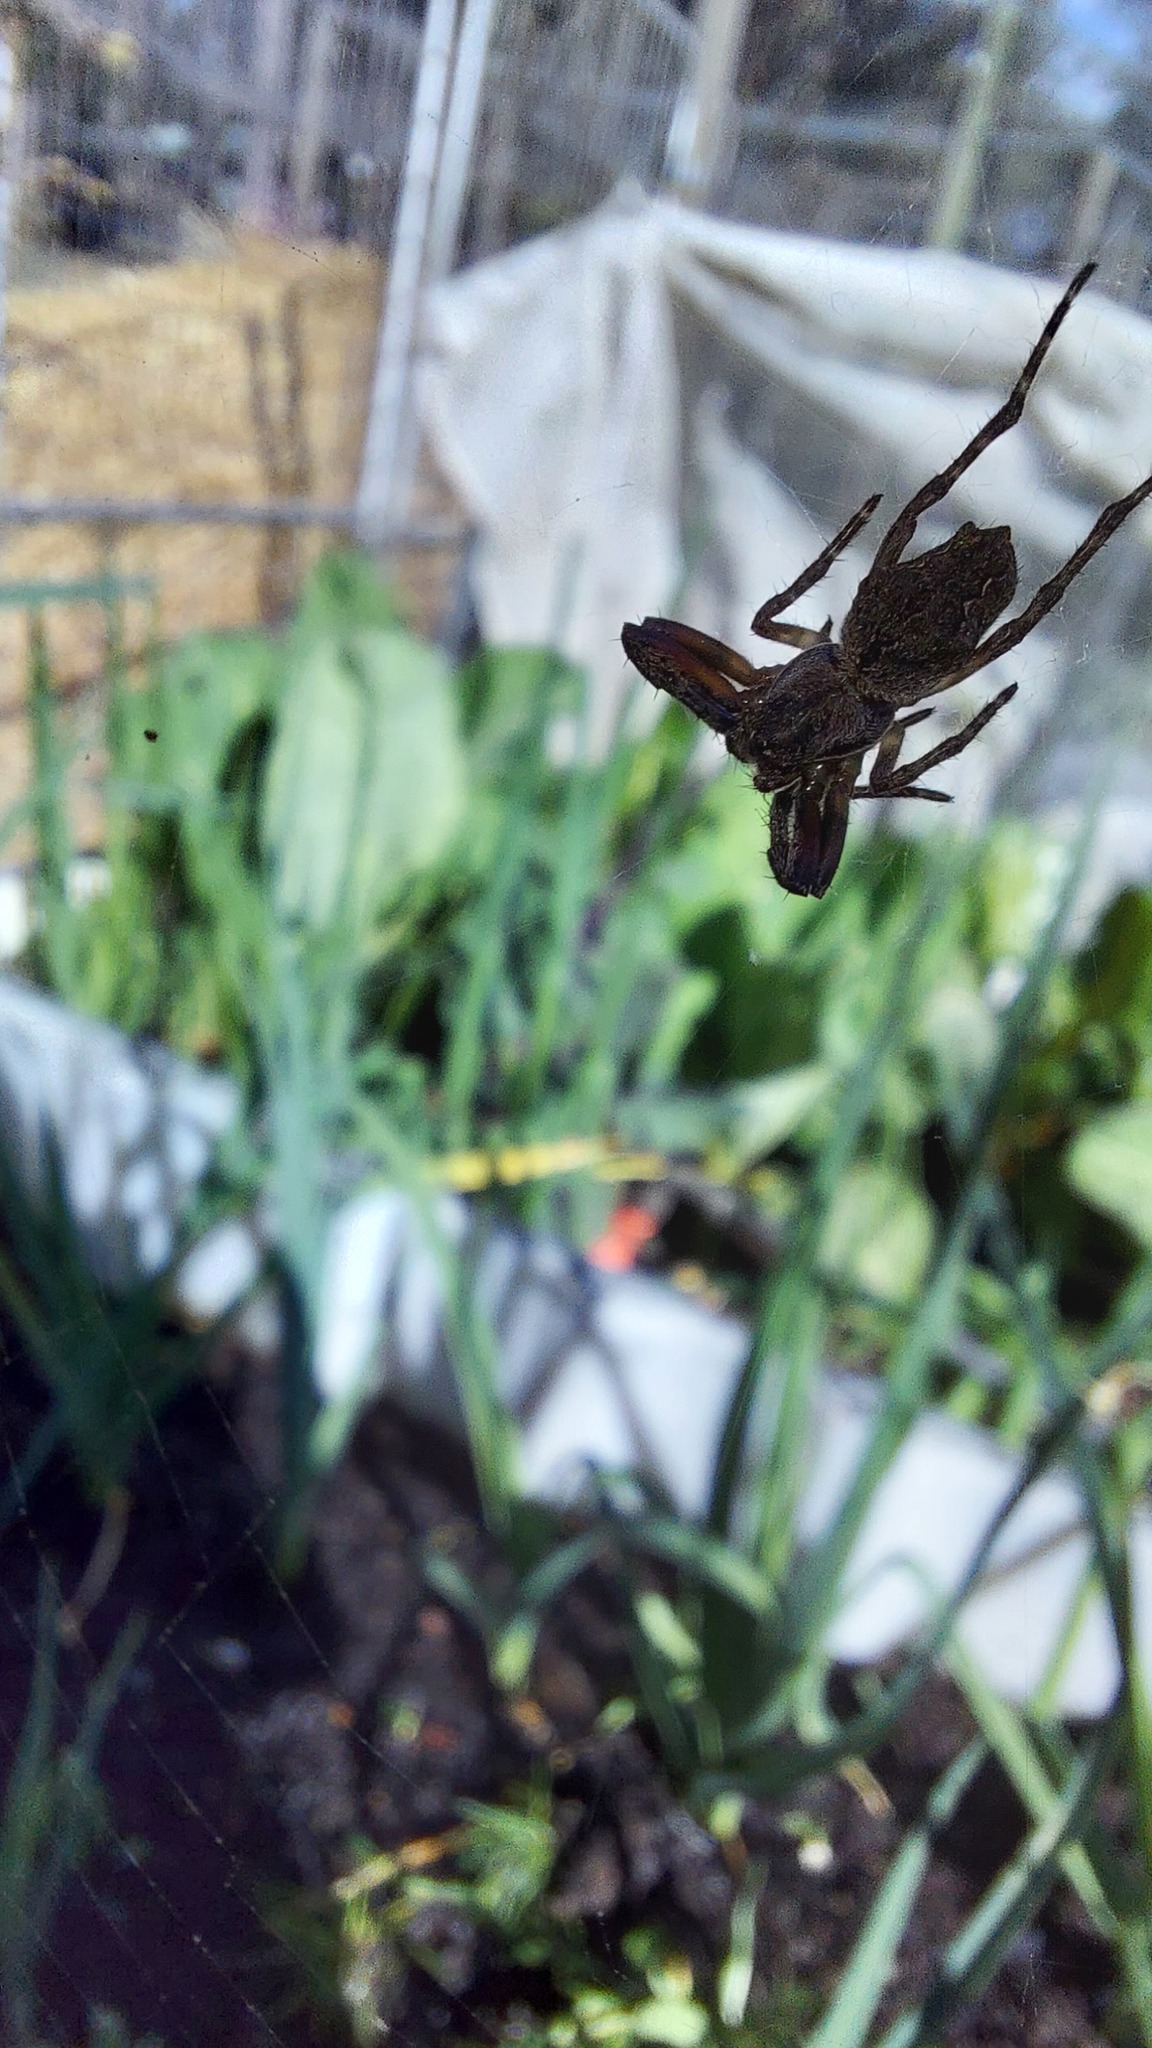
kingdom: Animalia
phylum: Arthropoda
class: Arachnida
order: Araneae
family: Araneidae
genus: Eriophora
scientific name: Eriophora pustulosa
